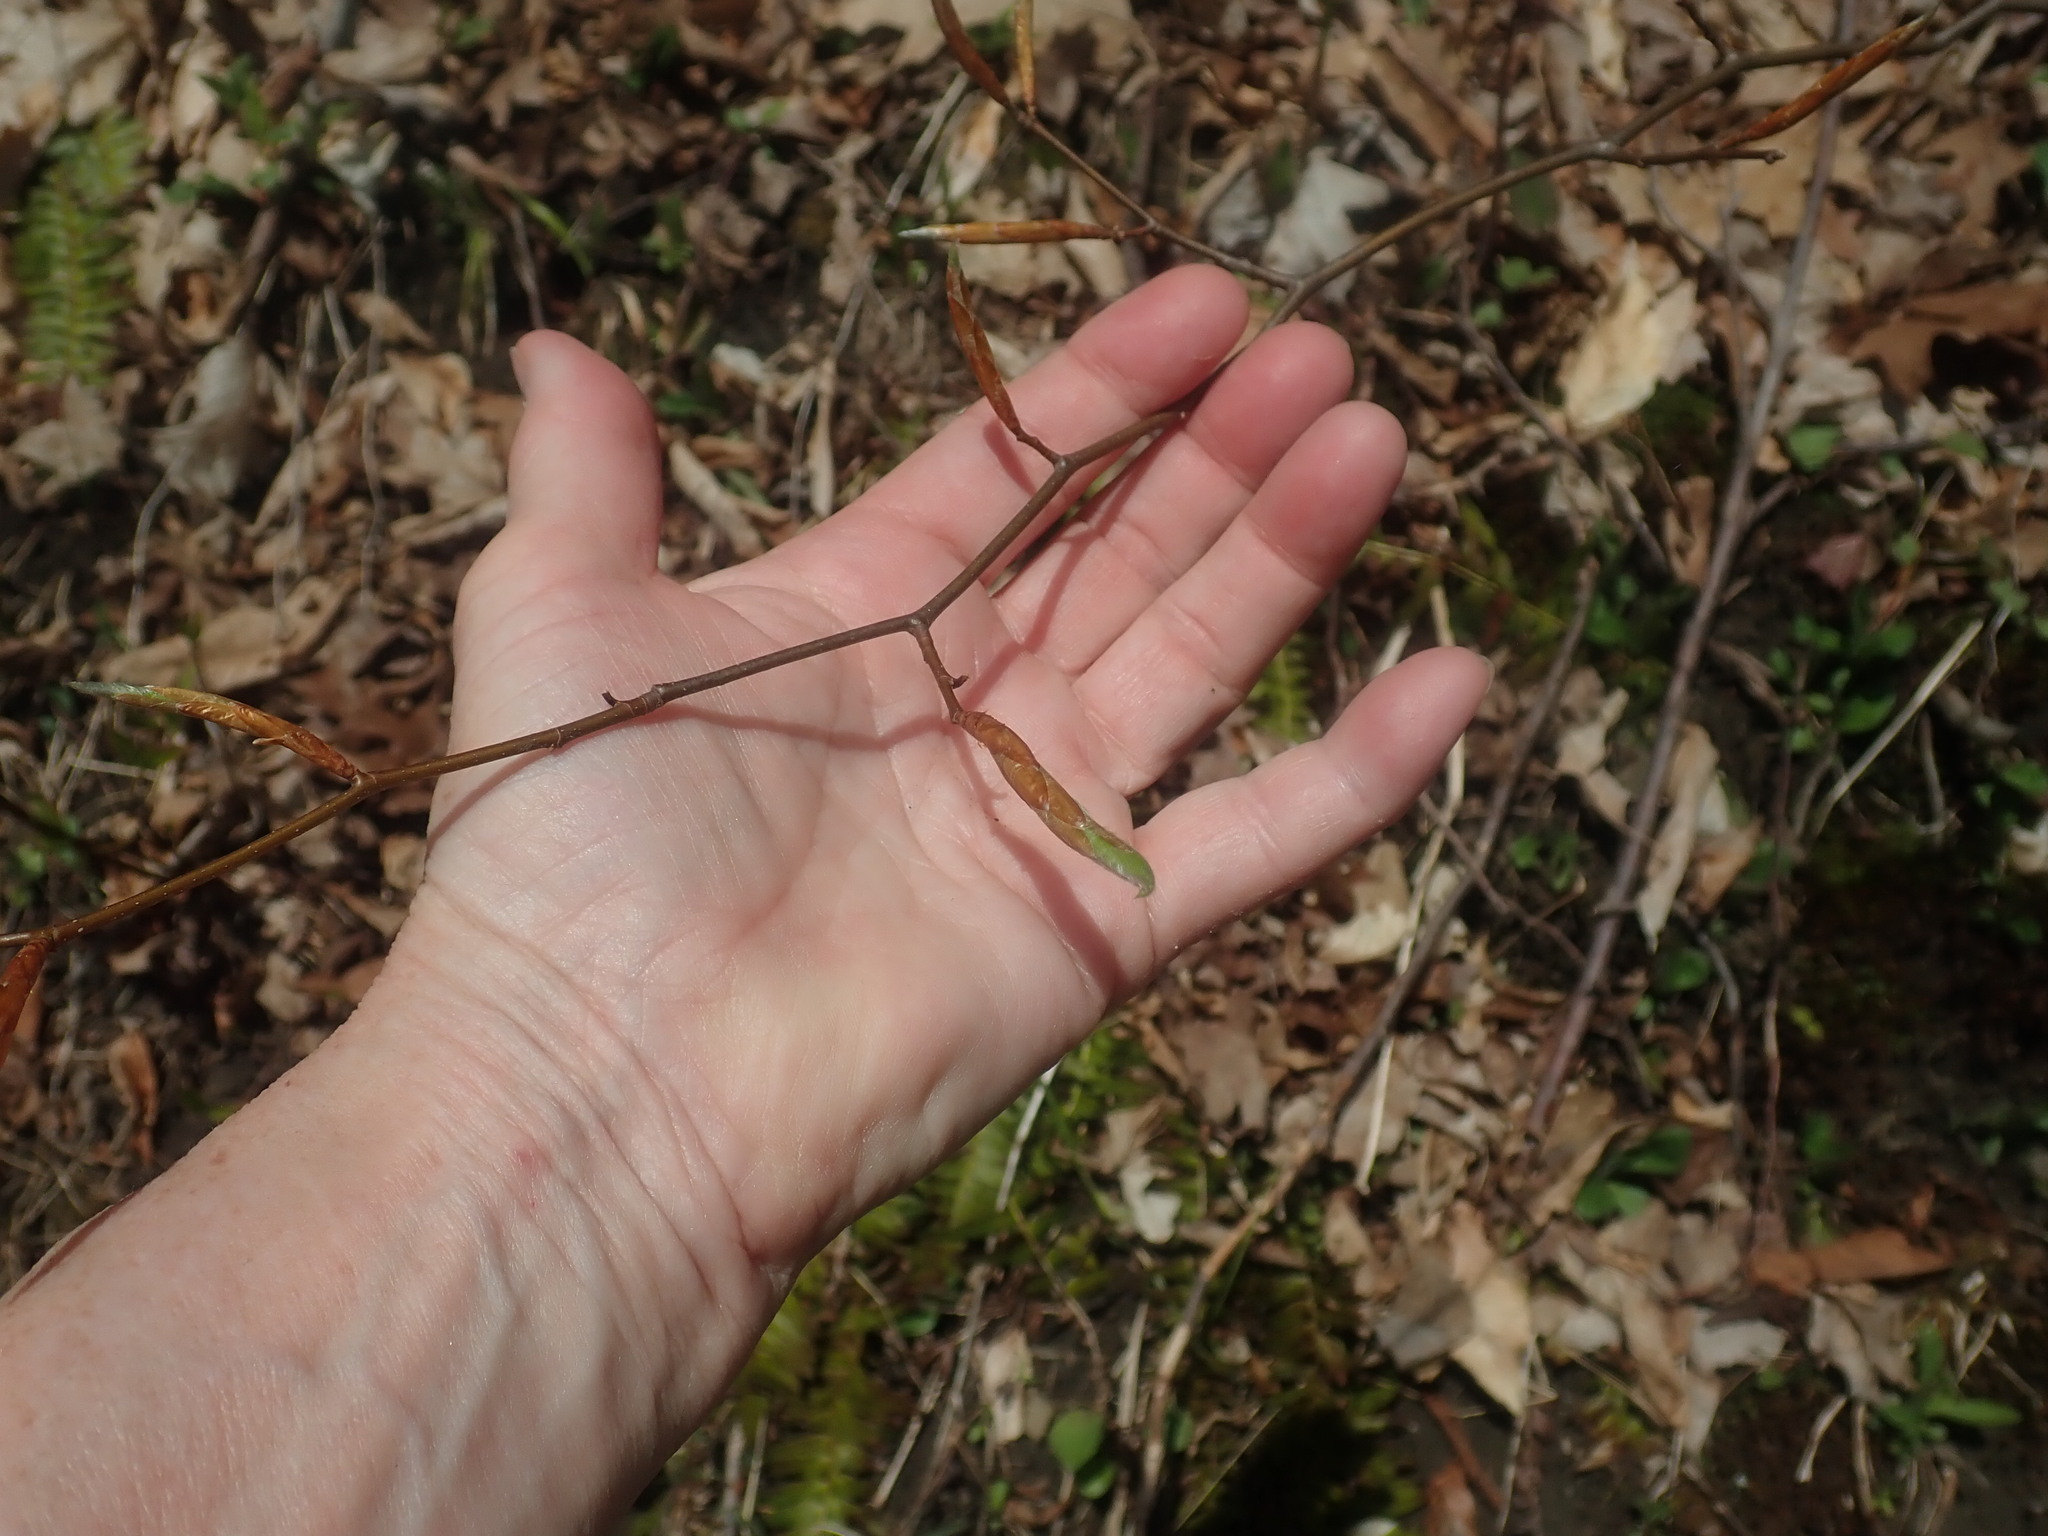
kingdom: Plantae
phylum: Tracheophyta
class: Magnoliopsida
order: Fagales
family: Fagaceae
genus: Fagus
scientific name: Fagus grandifolia
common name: American beech
